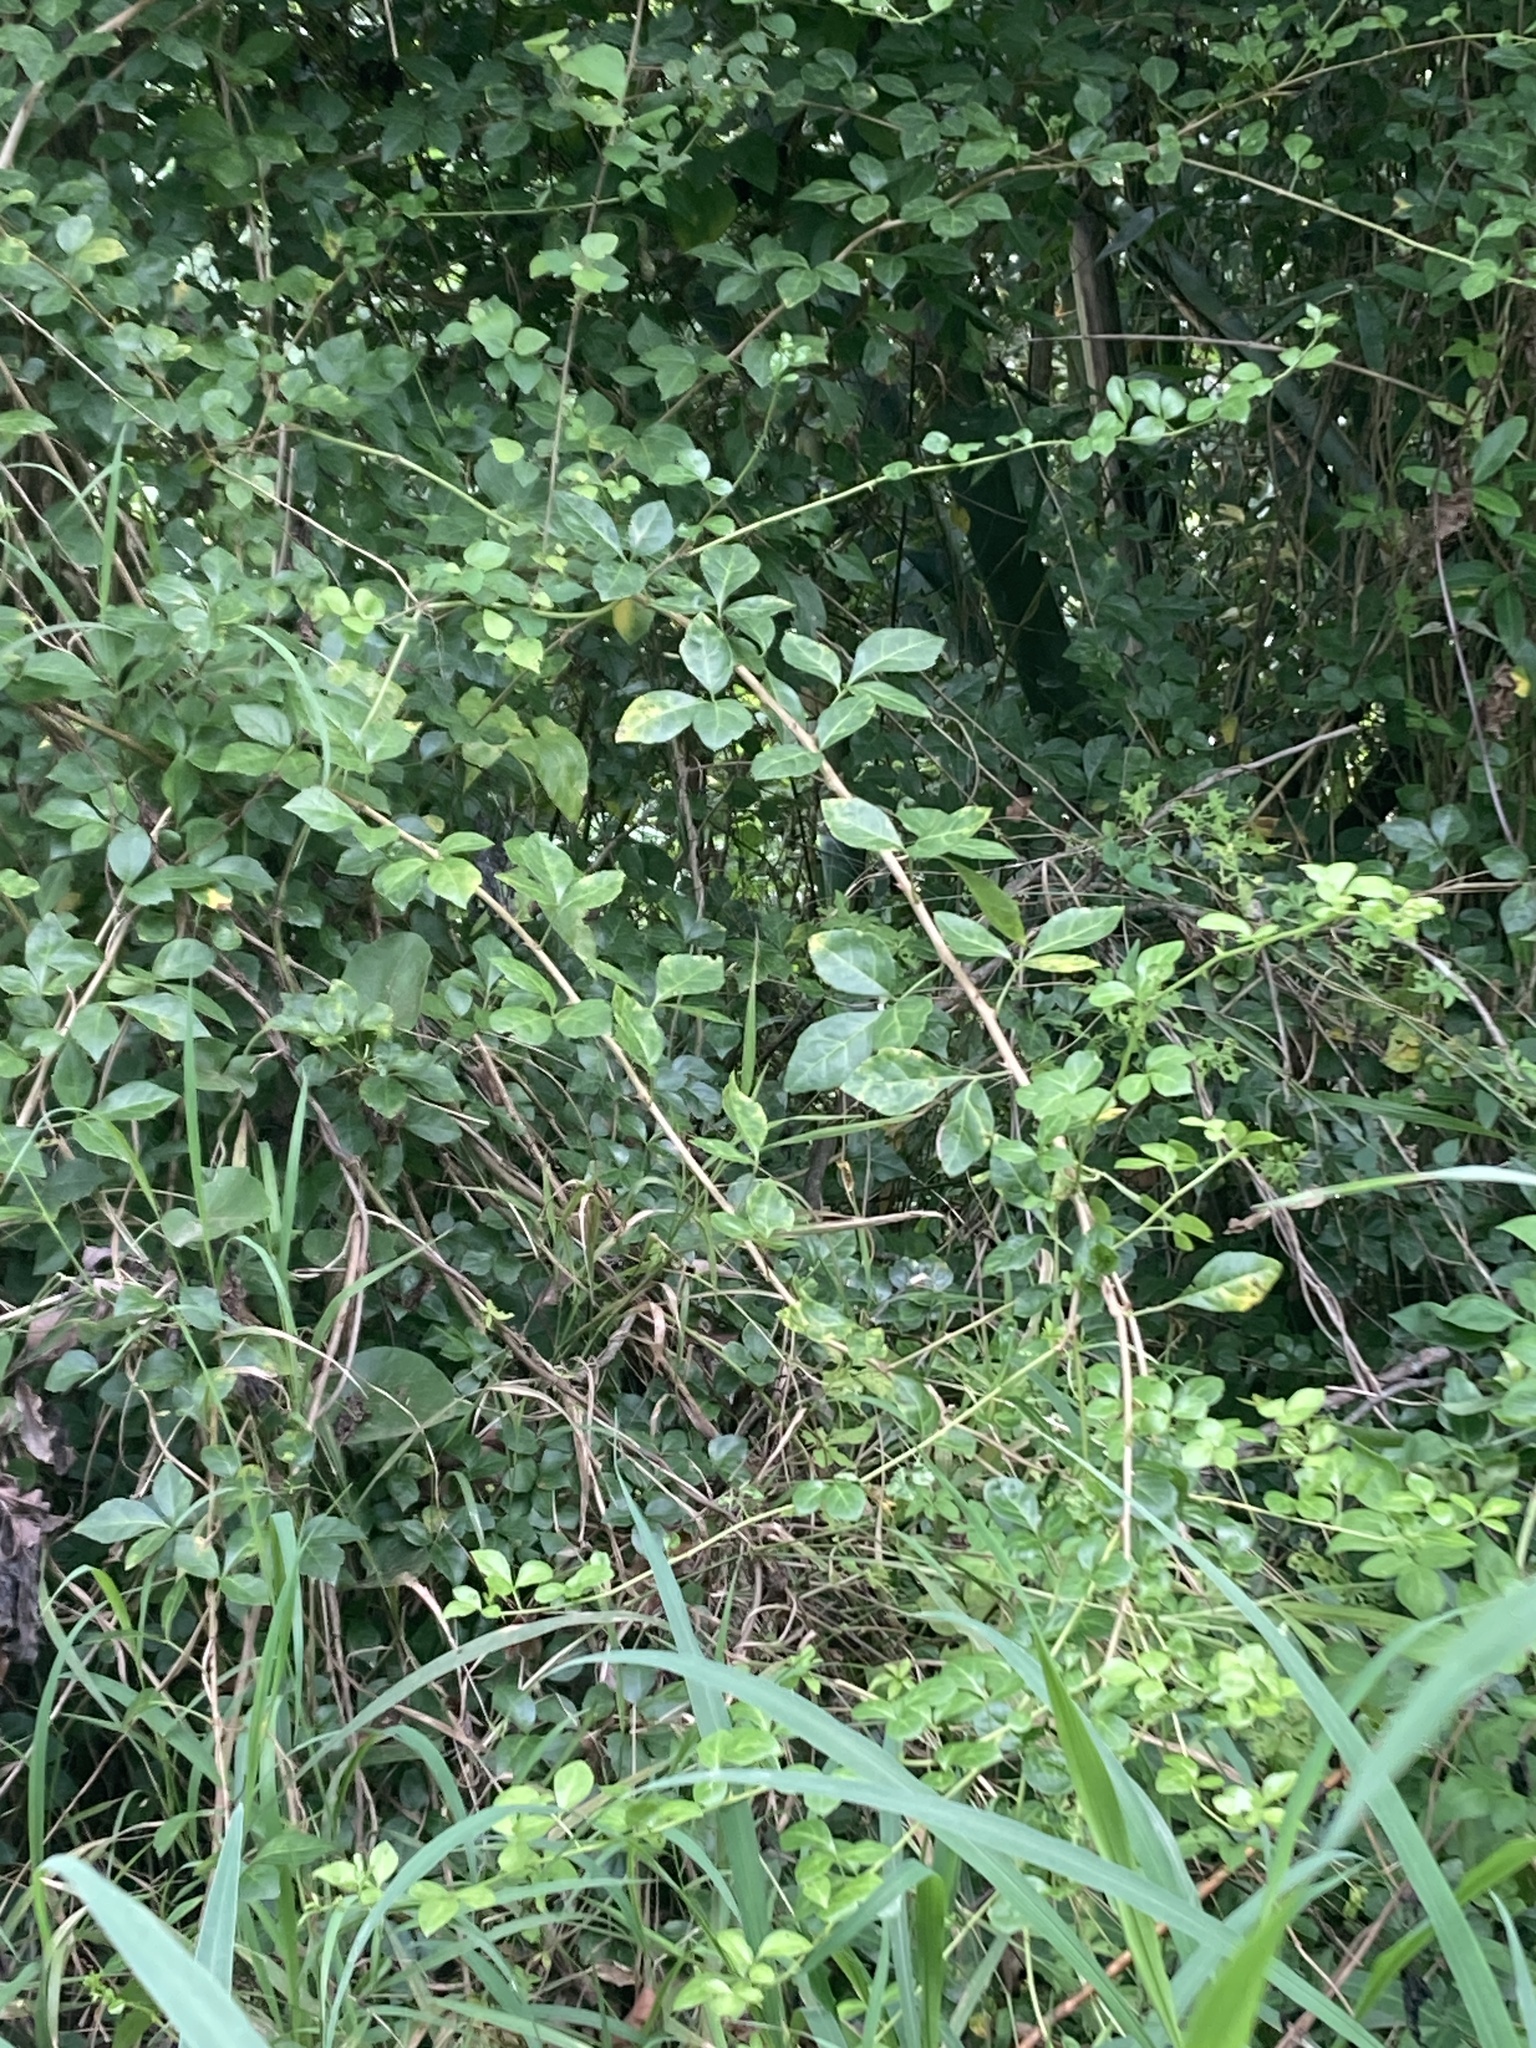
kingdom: Plantae
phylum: Tracheophyta
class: Magnoliopsida
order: Apiales
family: Araliaceae
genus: Eleutherococcus
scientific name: Eleutherococcus trifoliatus
